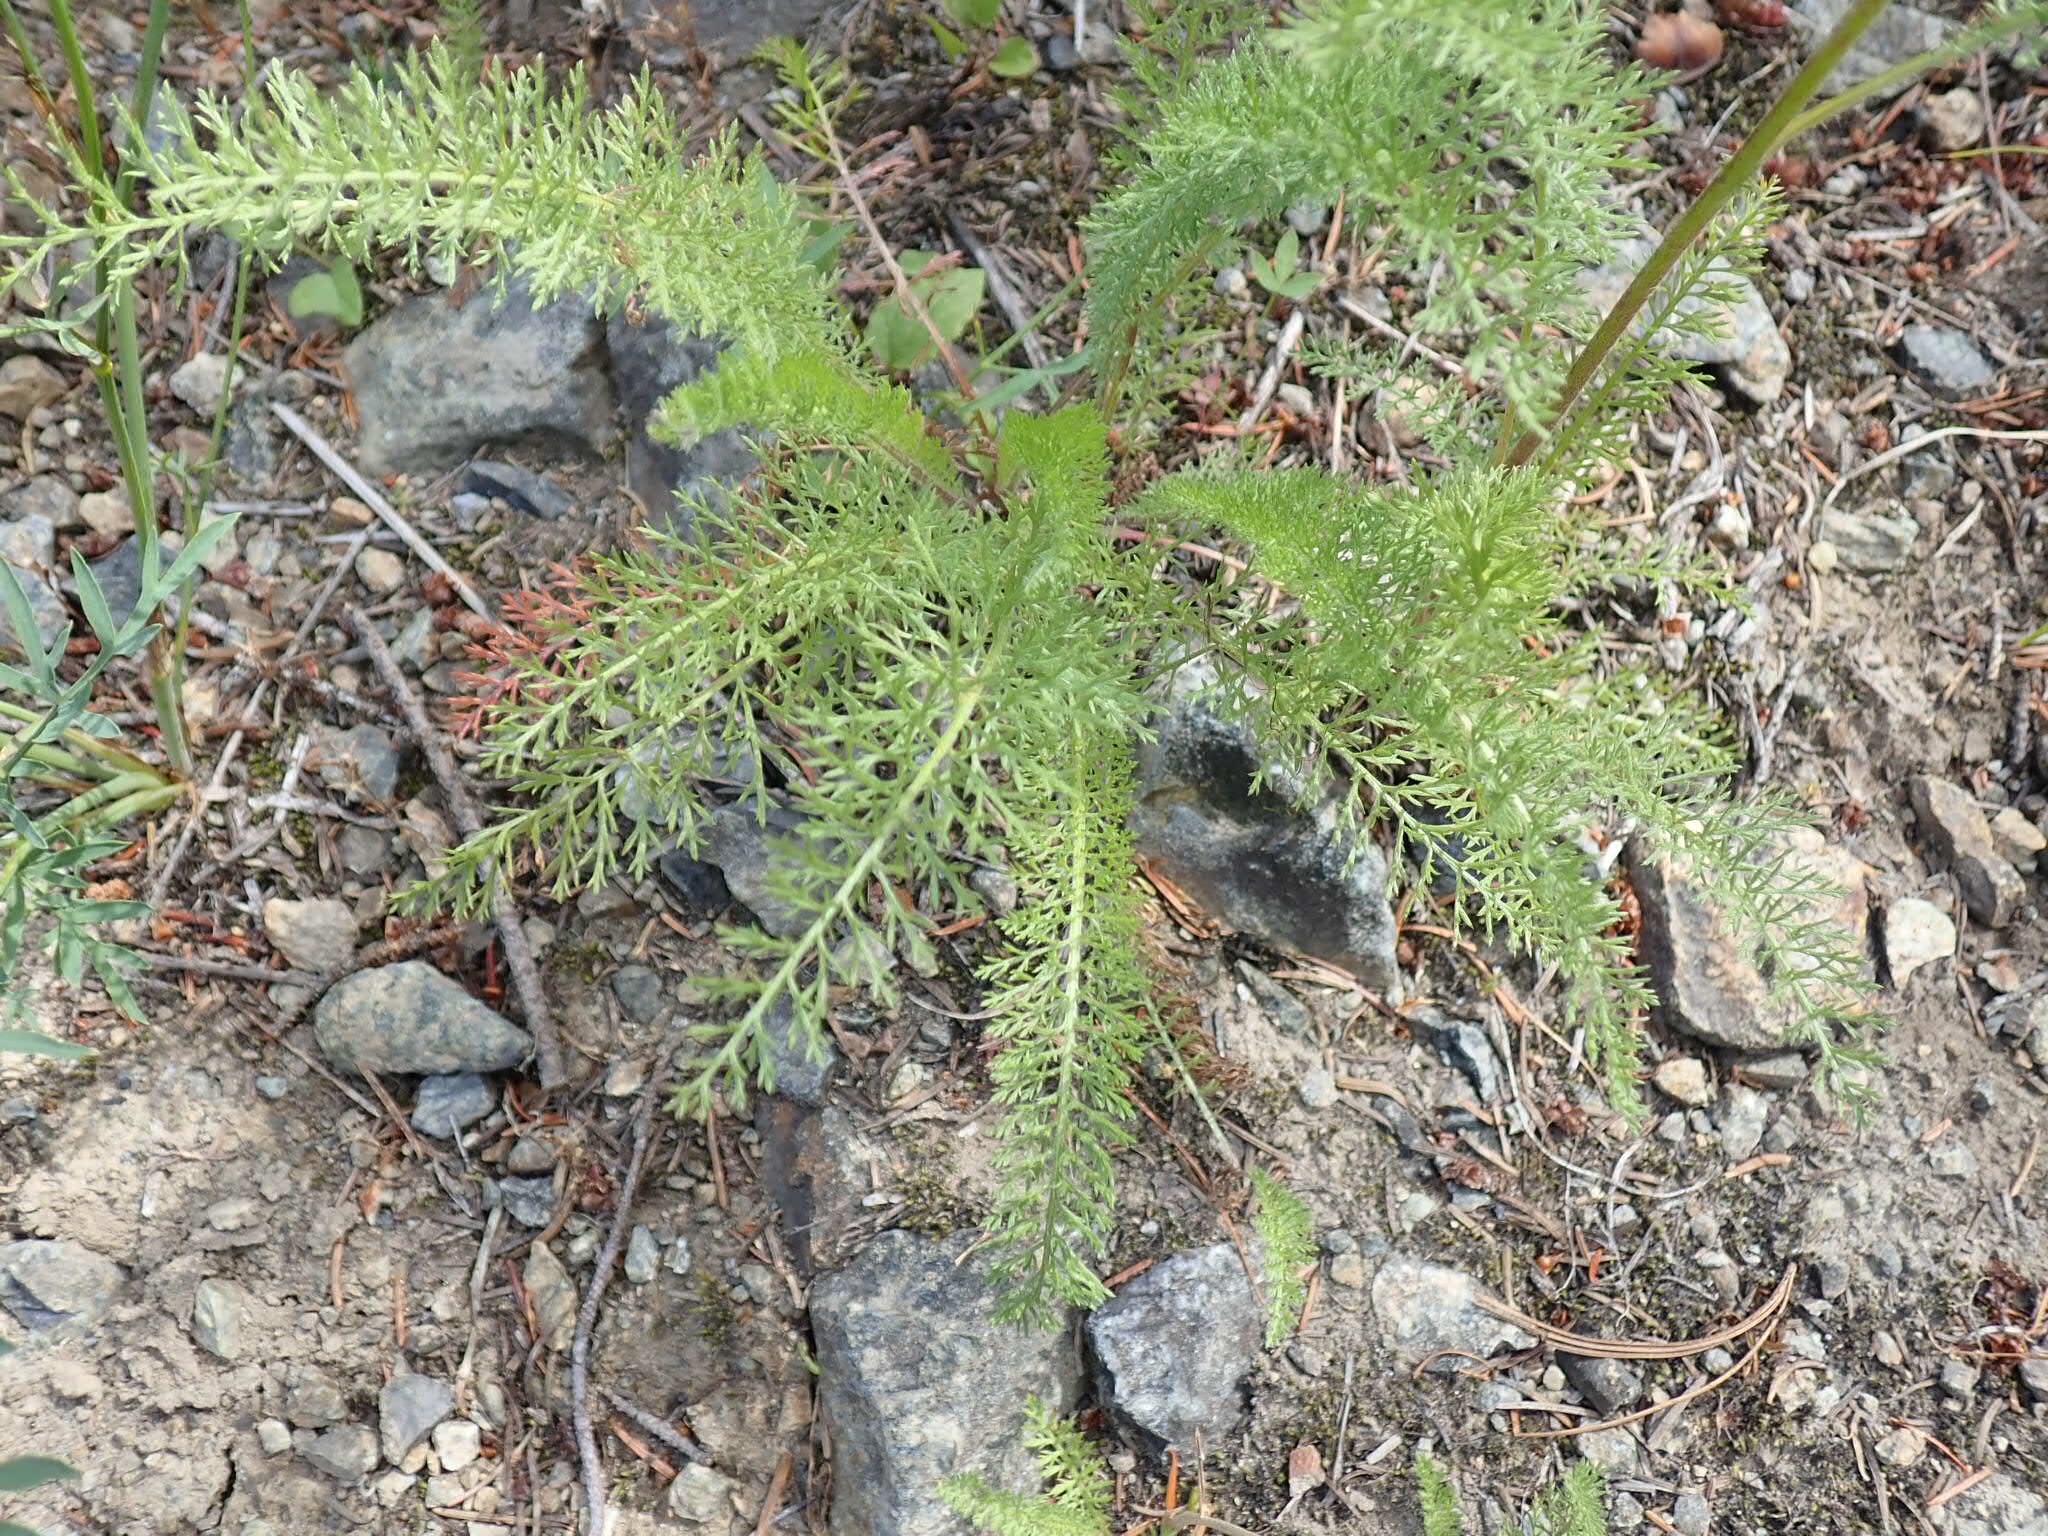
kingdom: Plantae
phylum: Tracheophyta
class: Magnoliopsida
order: Asterales
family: Asteraceae
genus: Achillea
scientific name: Achillea millefolium
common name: Yarrow
